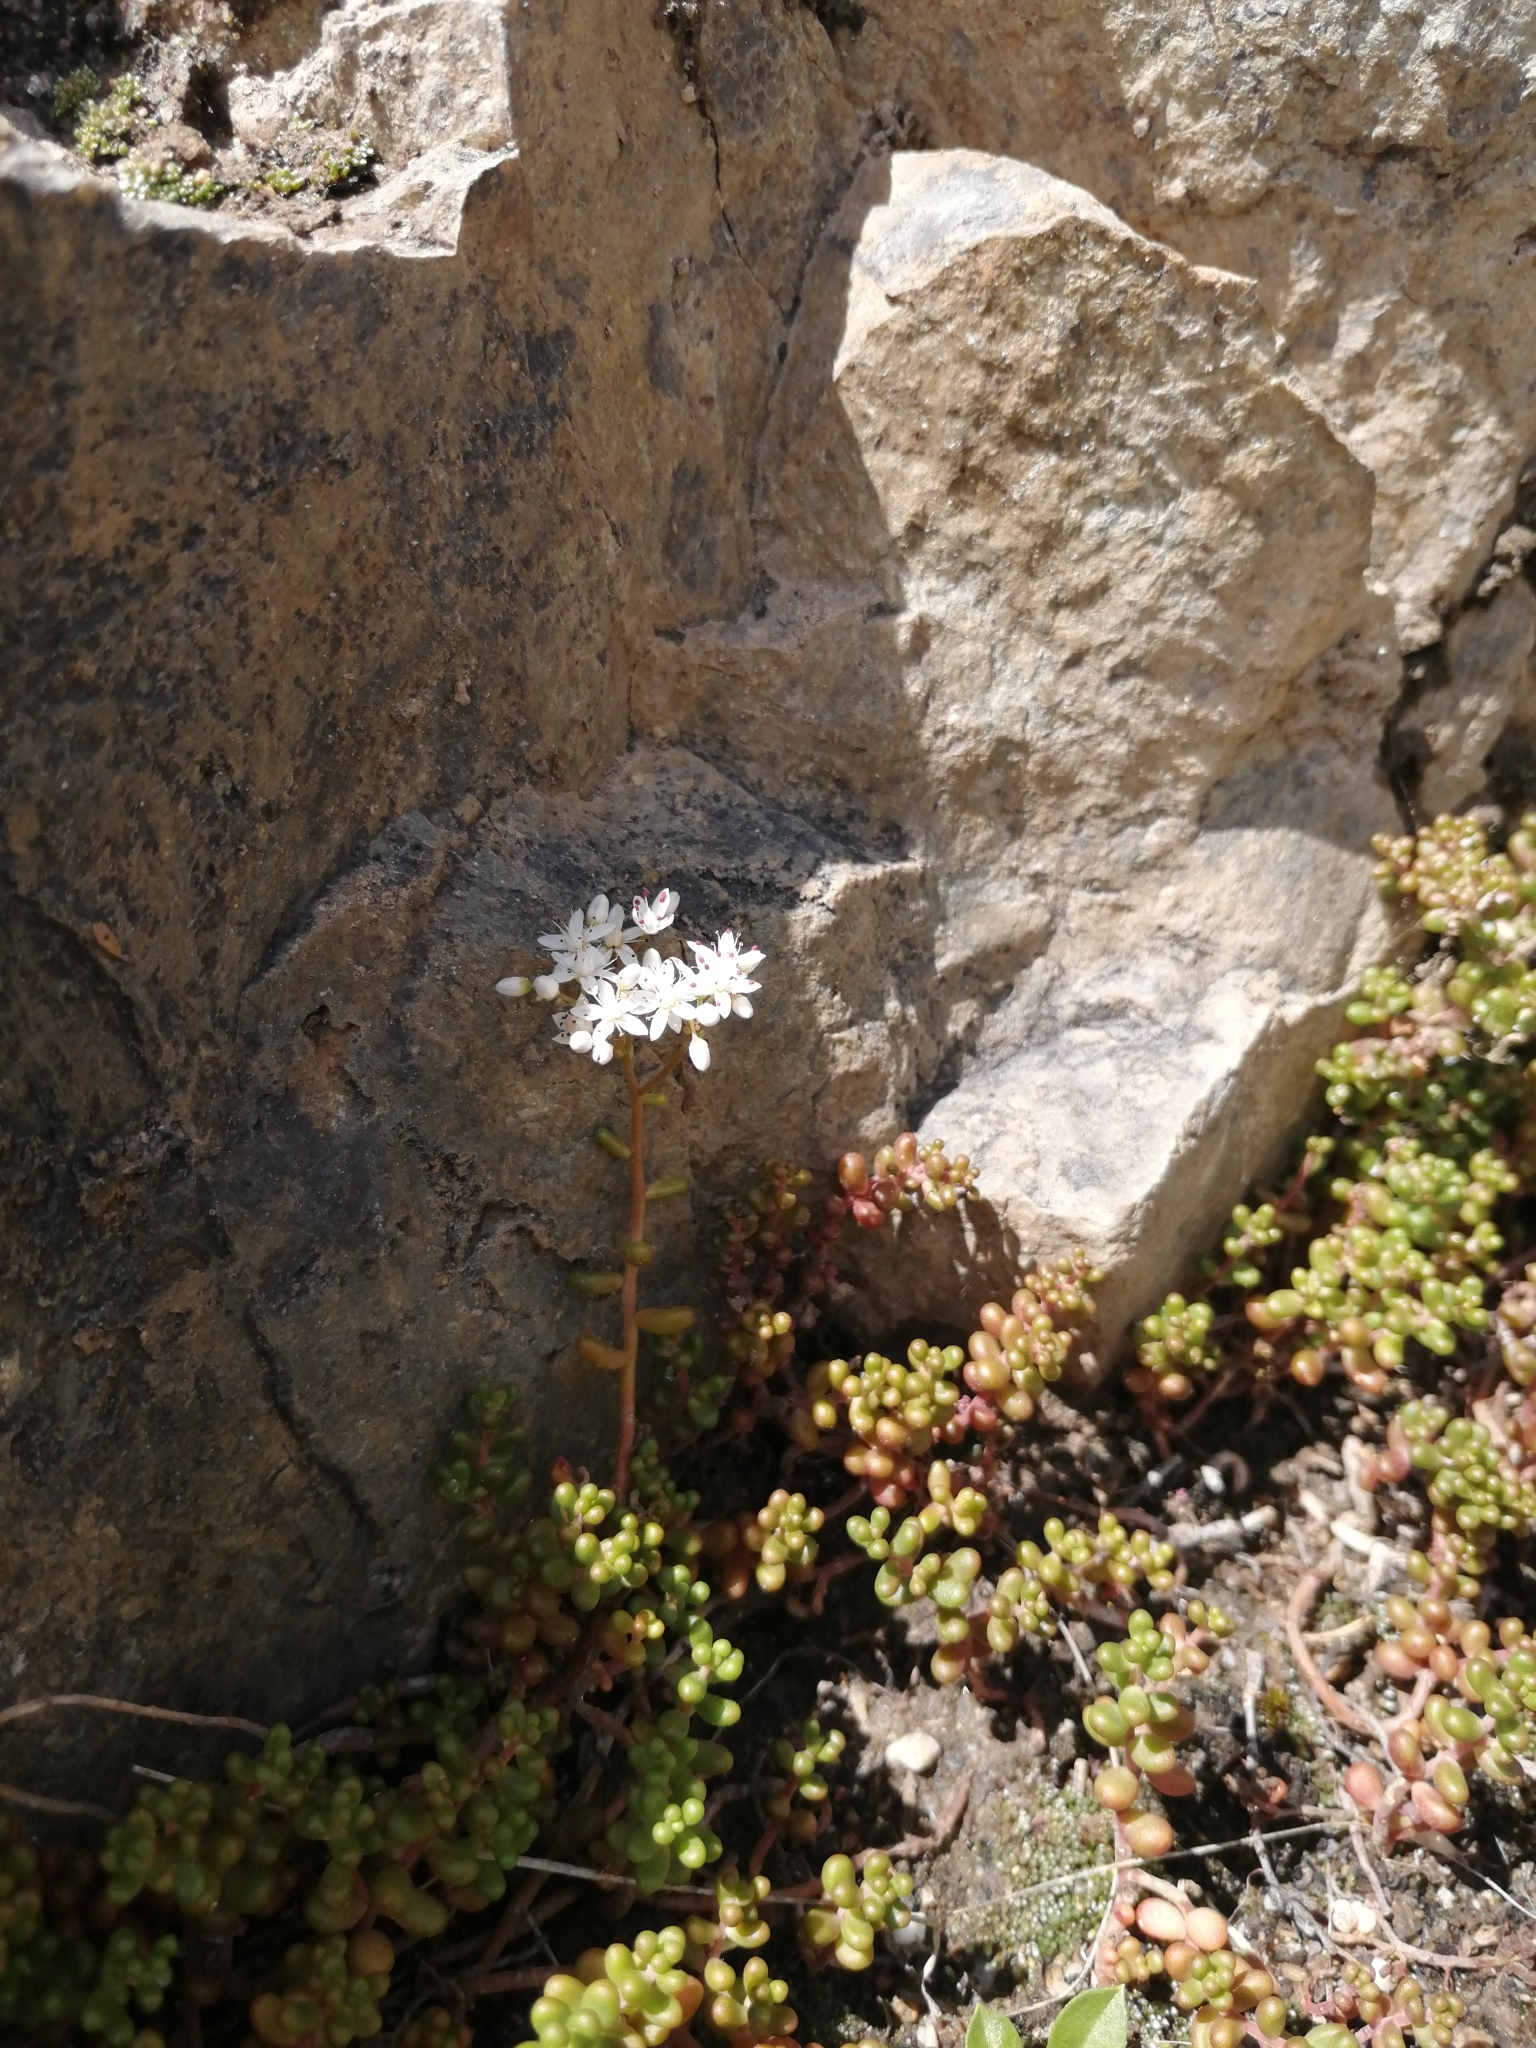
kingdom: Plantae
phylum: Tracheophyta
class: Magnoliopsida
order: Saxifragales
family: Crassulaceae
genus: Sedum
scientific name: Sedum album
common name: White stonecrop
